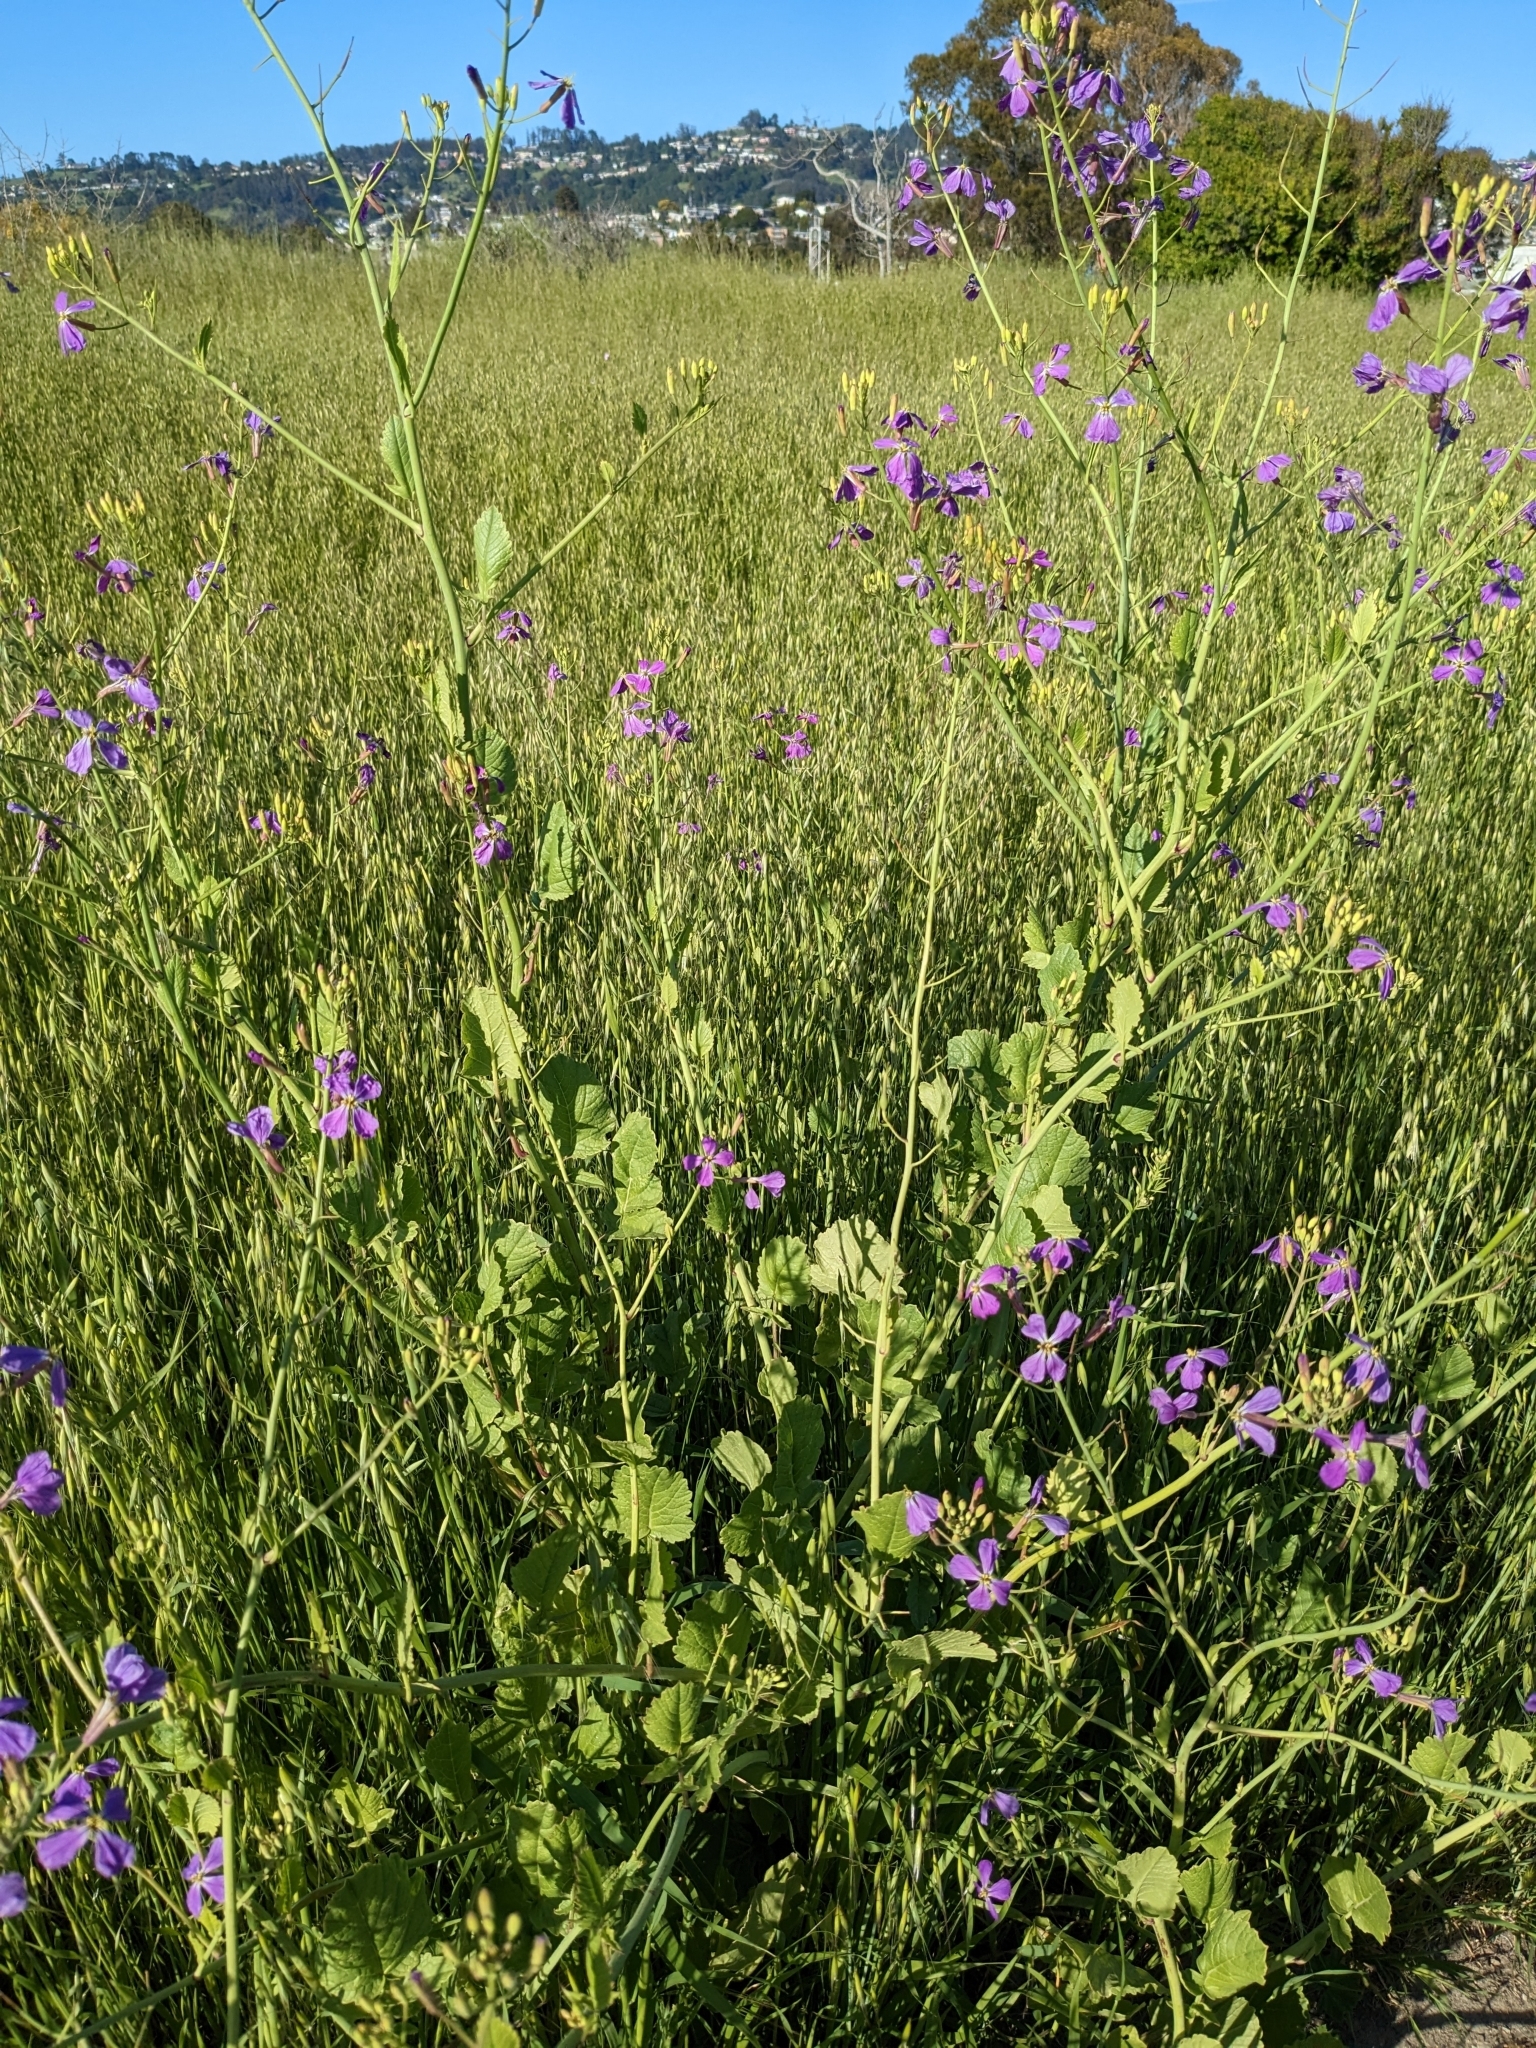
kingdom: Plantae
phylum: Tracheophyta
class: Magnoliopsida
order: Brassicales
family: Brassicaceae
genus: Raphanus
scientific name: Raphanus sativus
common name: Cultivated radish
